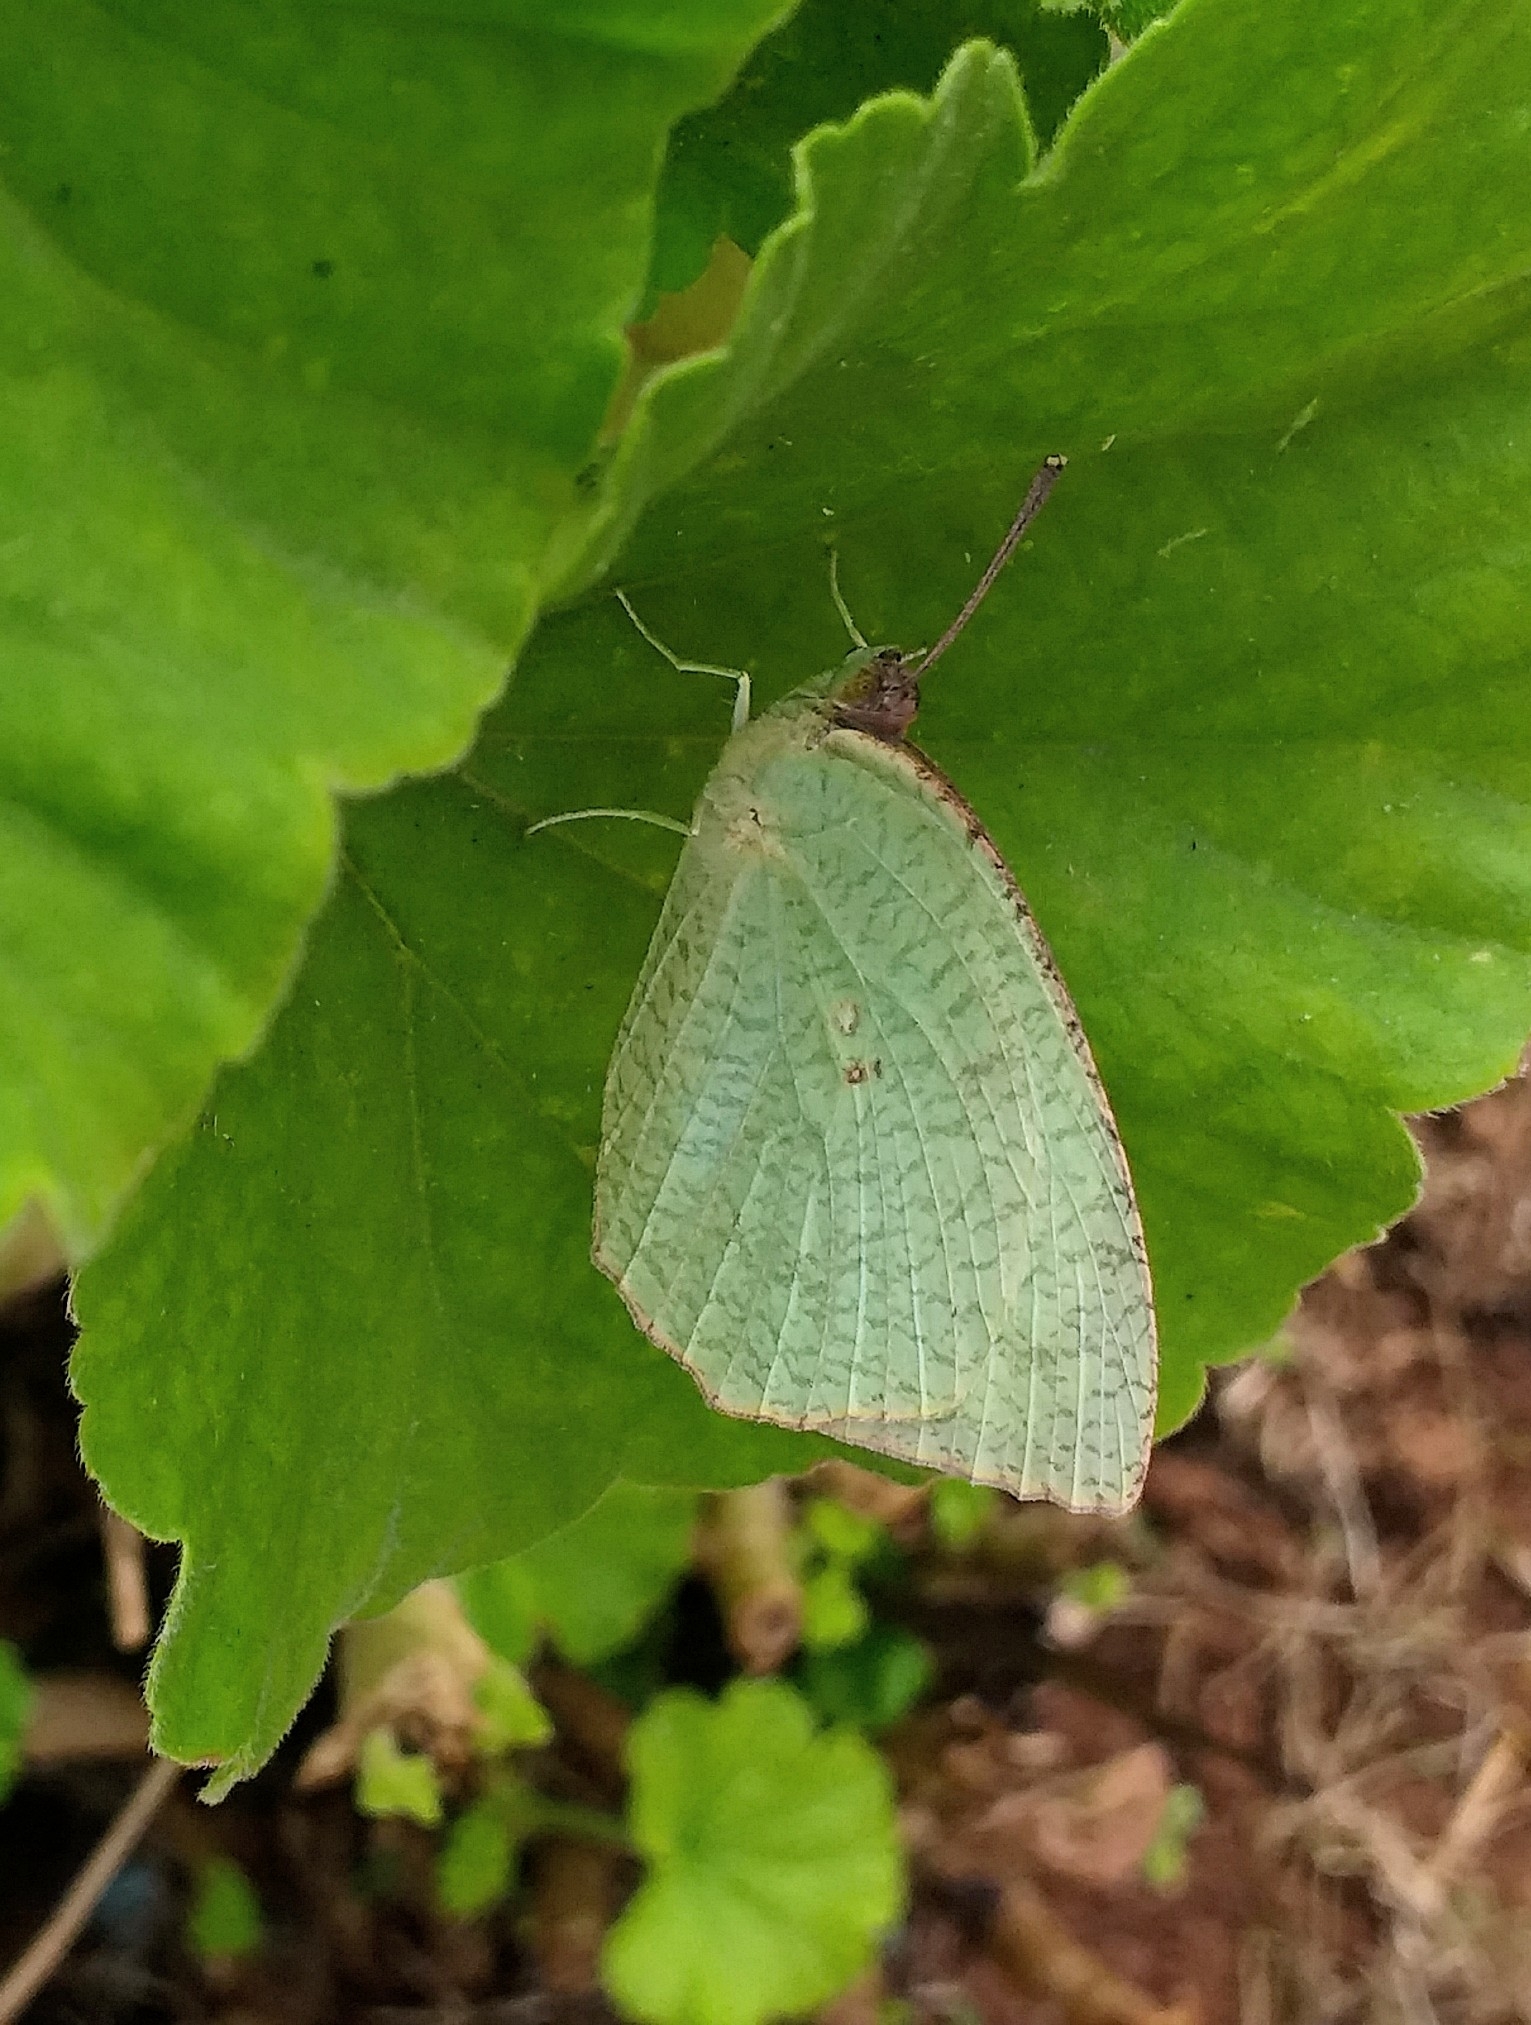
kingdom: Animalia
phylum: Arthropoda
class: Insecta
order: Lepidoptera
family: Pieridae
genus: Catopsilia
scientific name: Catopsilia pyranthe
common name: Mottled emigrant
